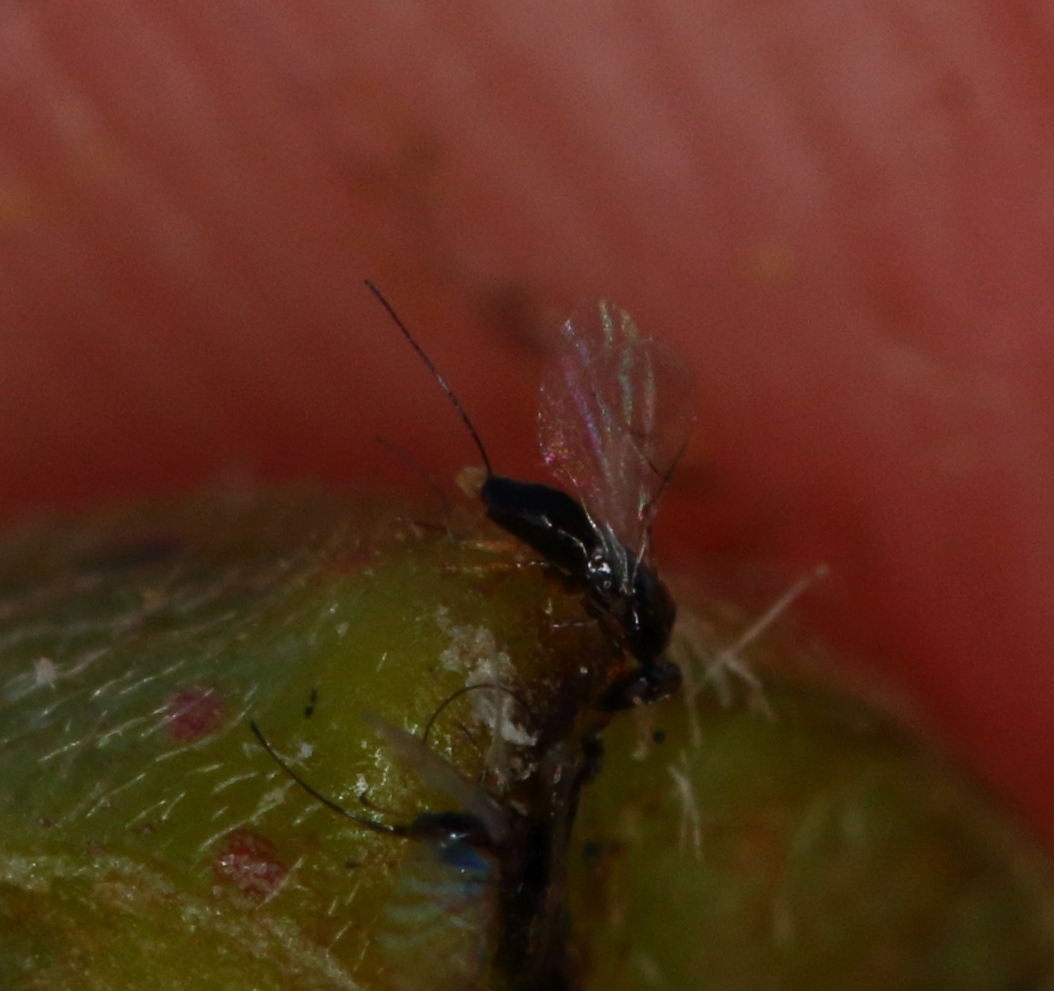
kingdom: Animalia
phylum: Arthropoda
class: Insecta
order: Hymenoptera
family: Agaonidae
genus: Elisabethiella
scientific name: Elisabethiella stueckenbergi
